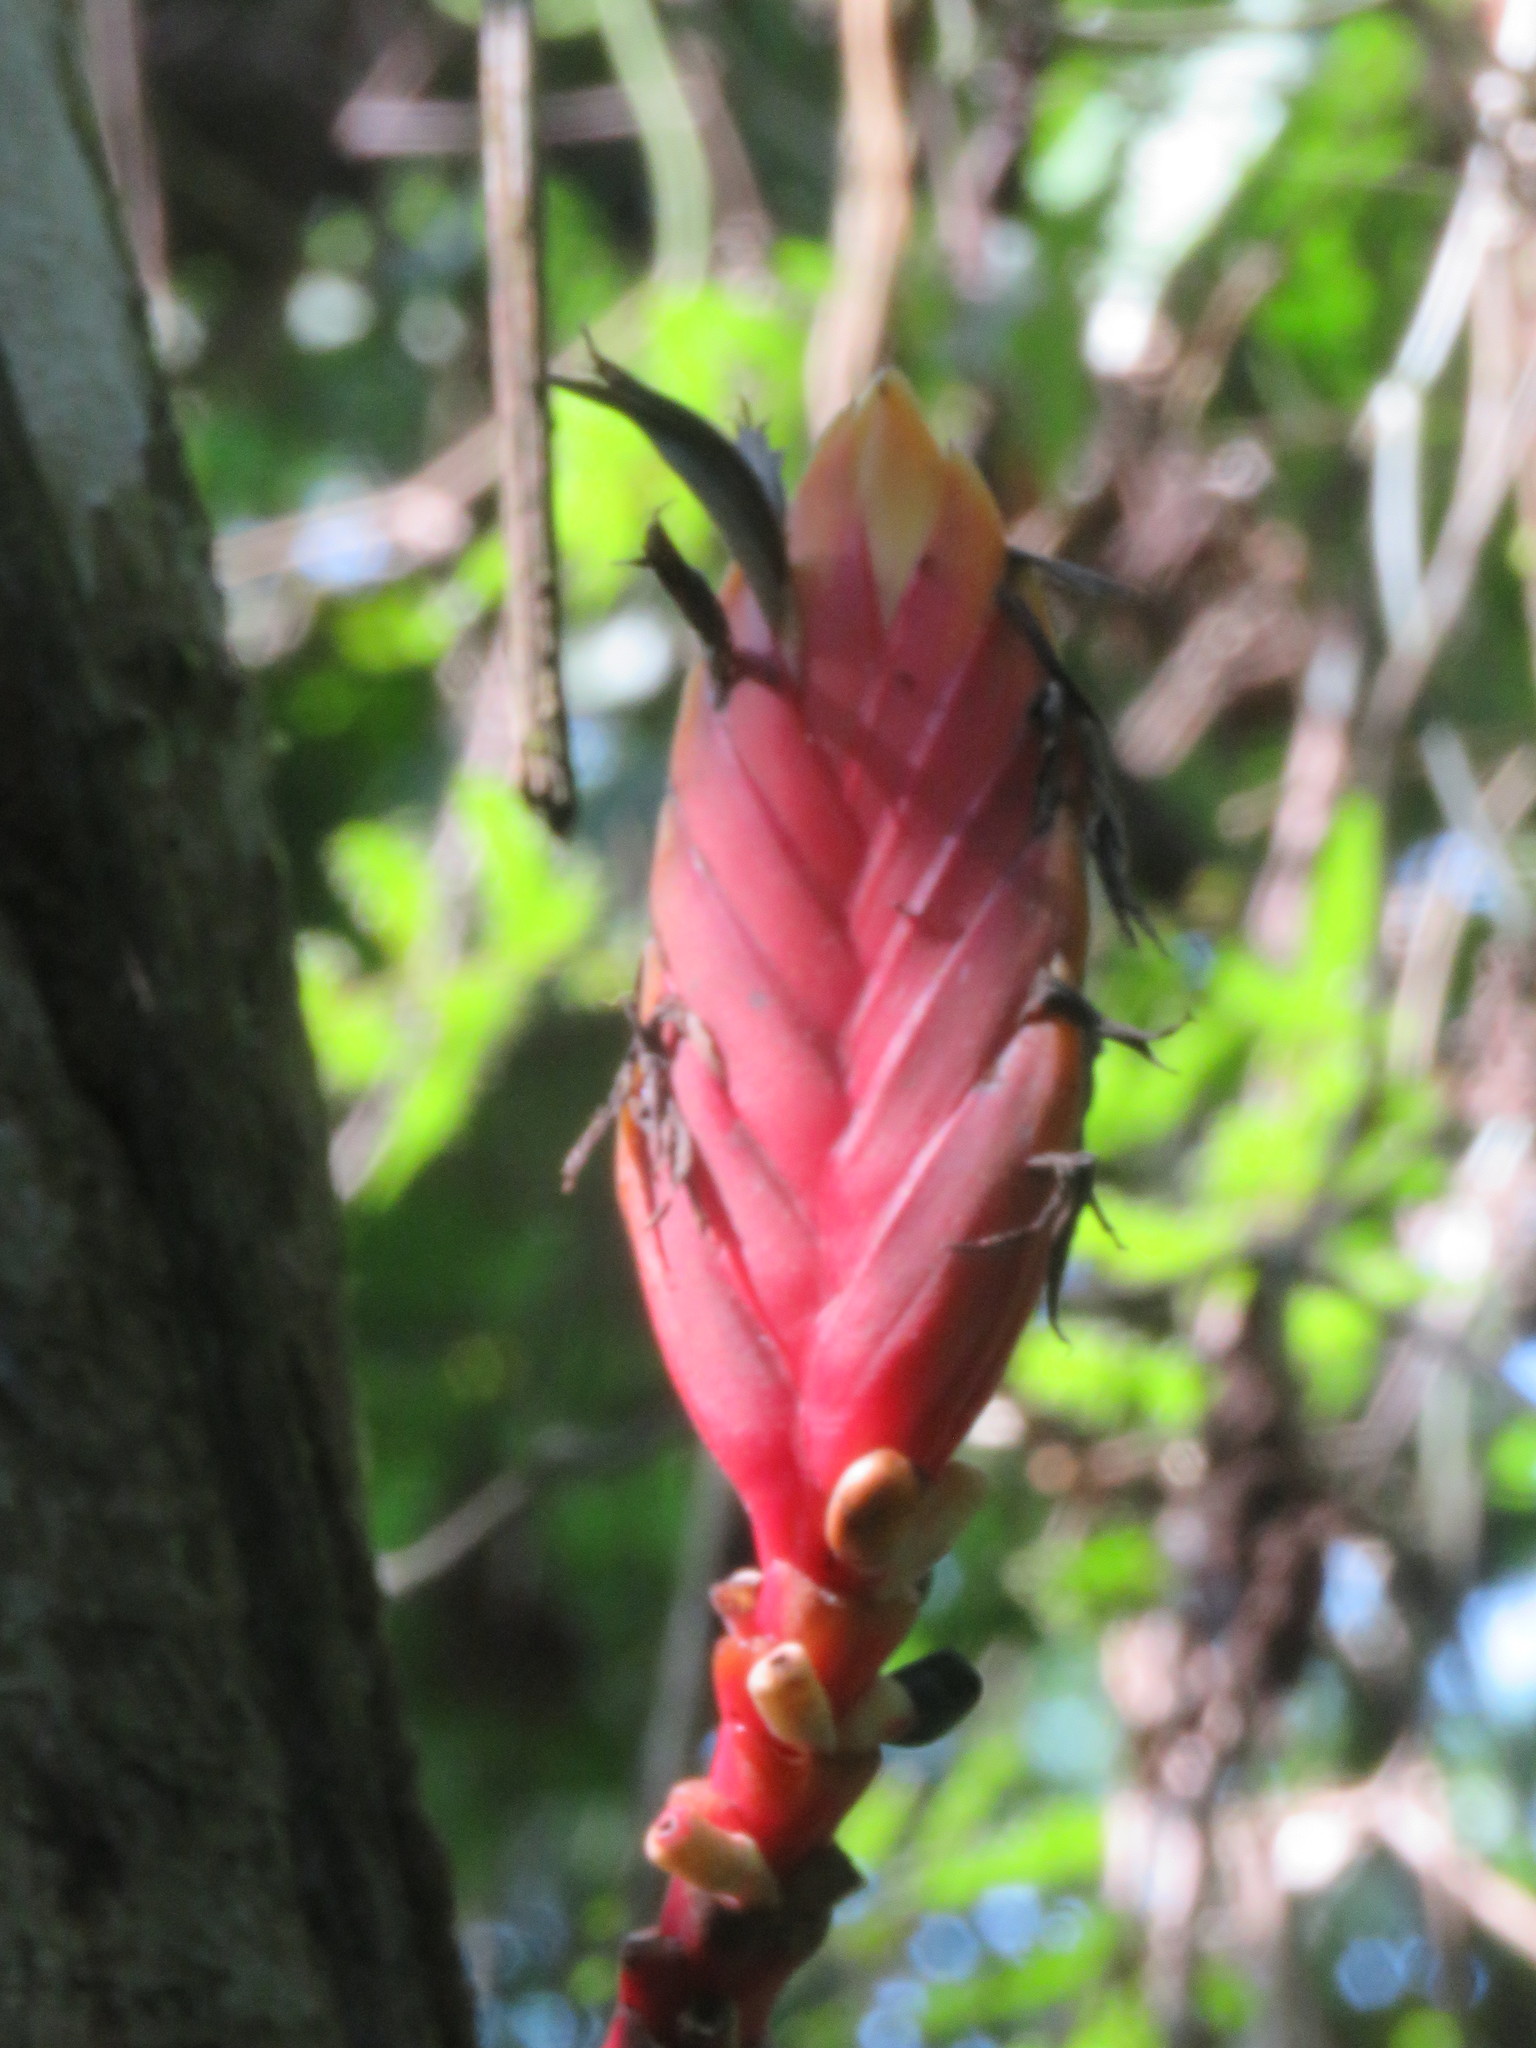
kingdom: Plantae
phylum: Tracheophyta
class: Liliopsida
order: Zingiberales
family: Heliconiaceae
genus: Heliconia
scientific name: Heliconia episcopalis
